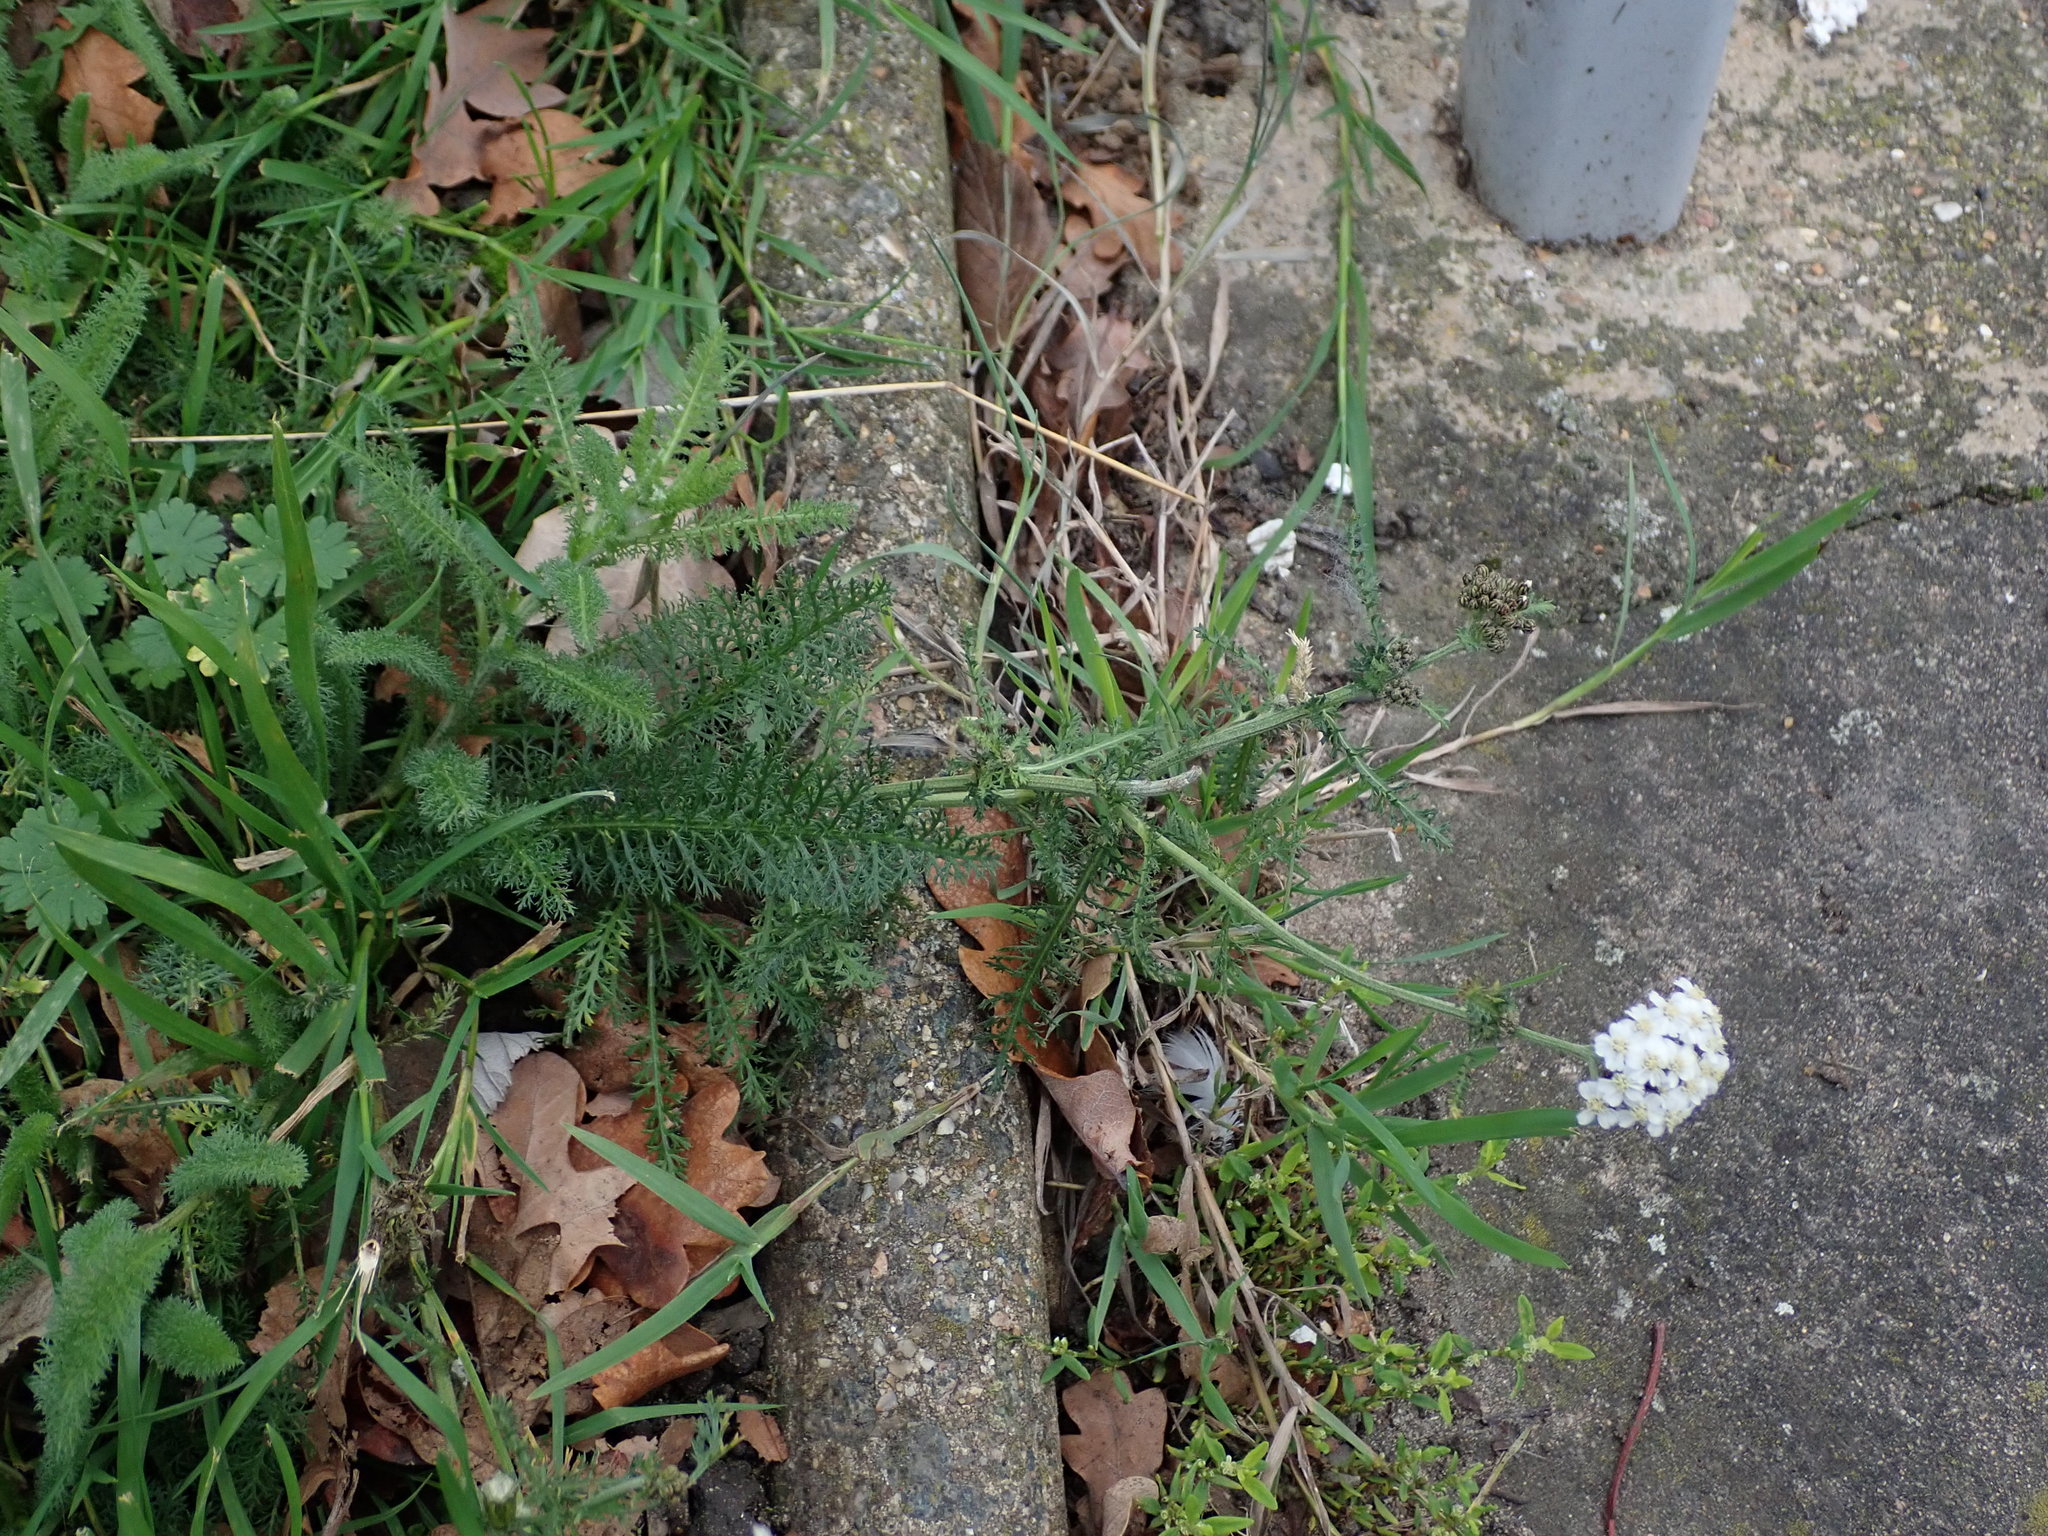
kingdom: Plantae
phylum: Tracheophyta
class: Magnoliopsida
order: Asterales
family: Asteraceae
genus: Achillea
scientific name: Achillea millefolium
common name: Yarrow
